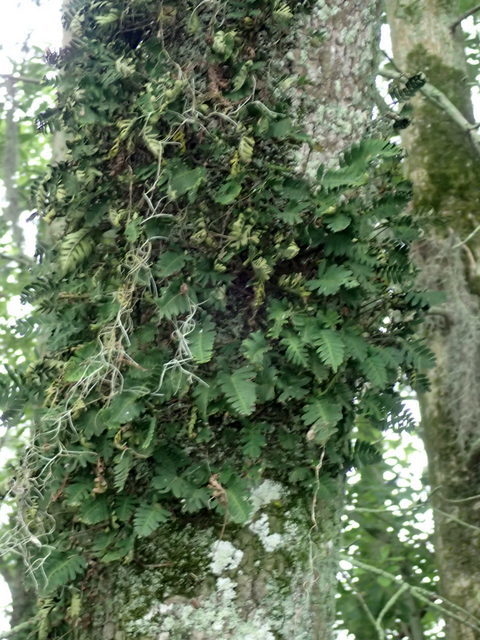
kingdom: Plantae
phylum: Tracheophyta
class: Polypodiopsida
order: Polypodiales
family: Polypodiaceae
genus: Pleopeltis
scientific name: Pleopeltis michauxiana
